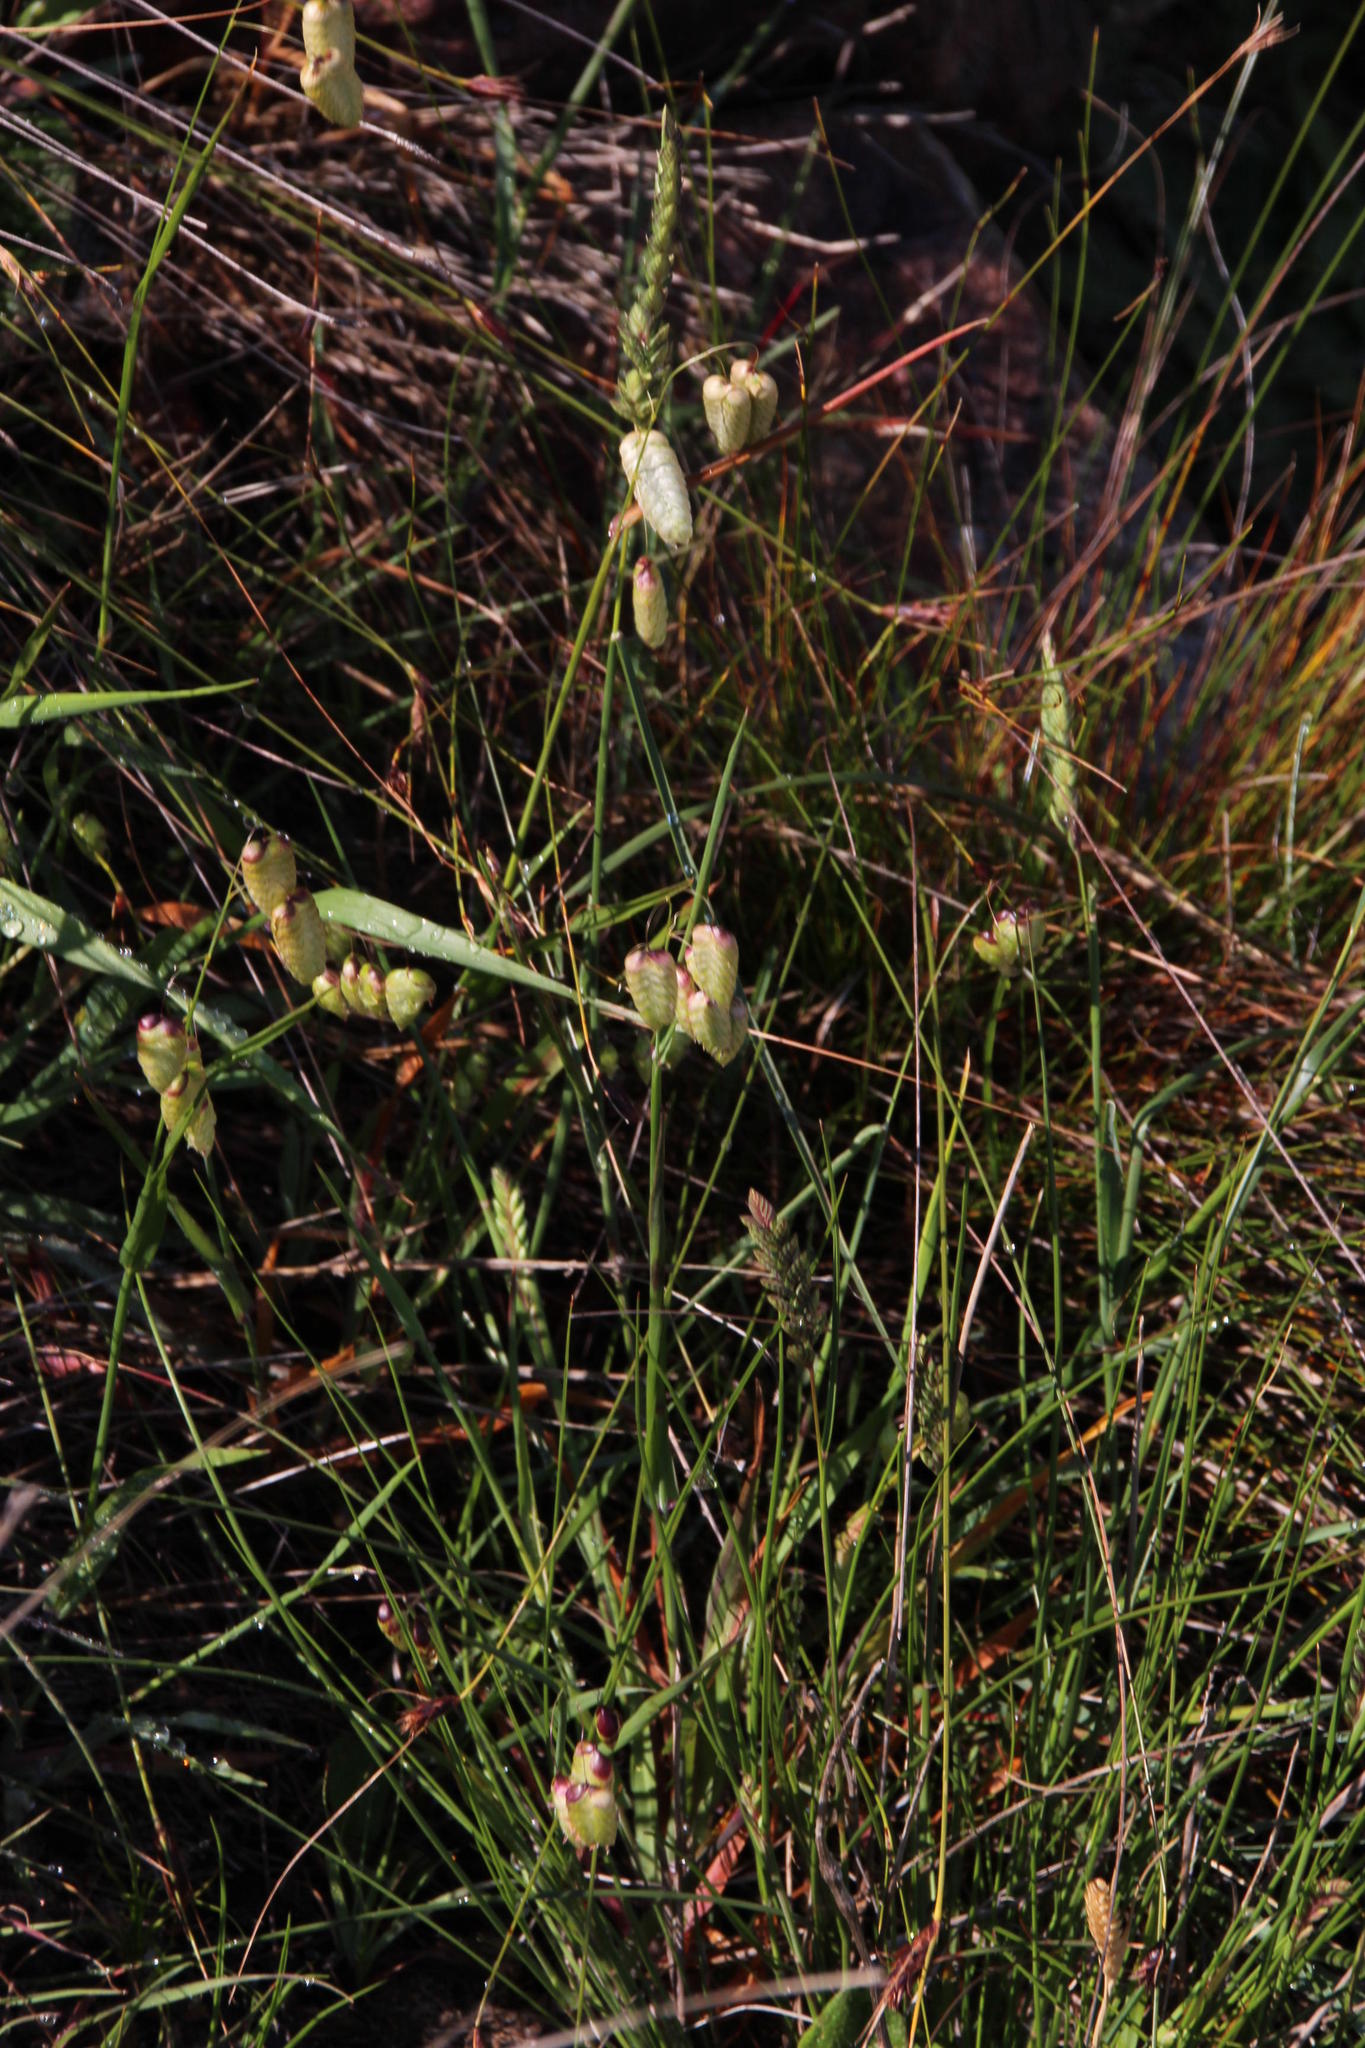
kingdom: Plantae
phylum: Tracheophyta
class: Liliopsida
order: Poales
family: Poaceae
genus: Briza
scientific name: Briza maxima
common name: Big quakinggrass
